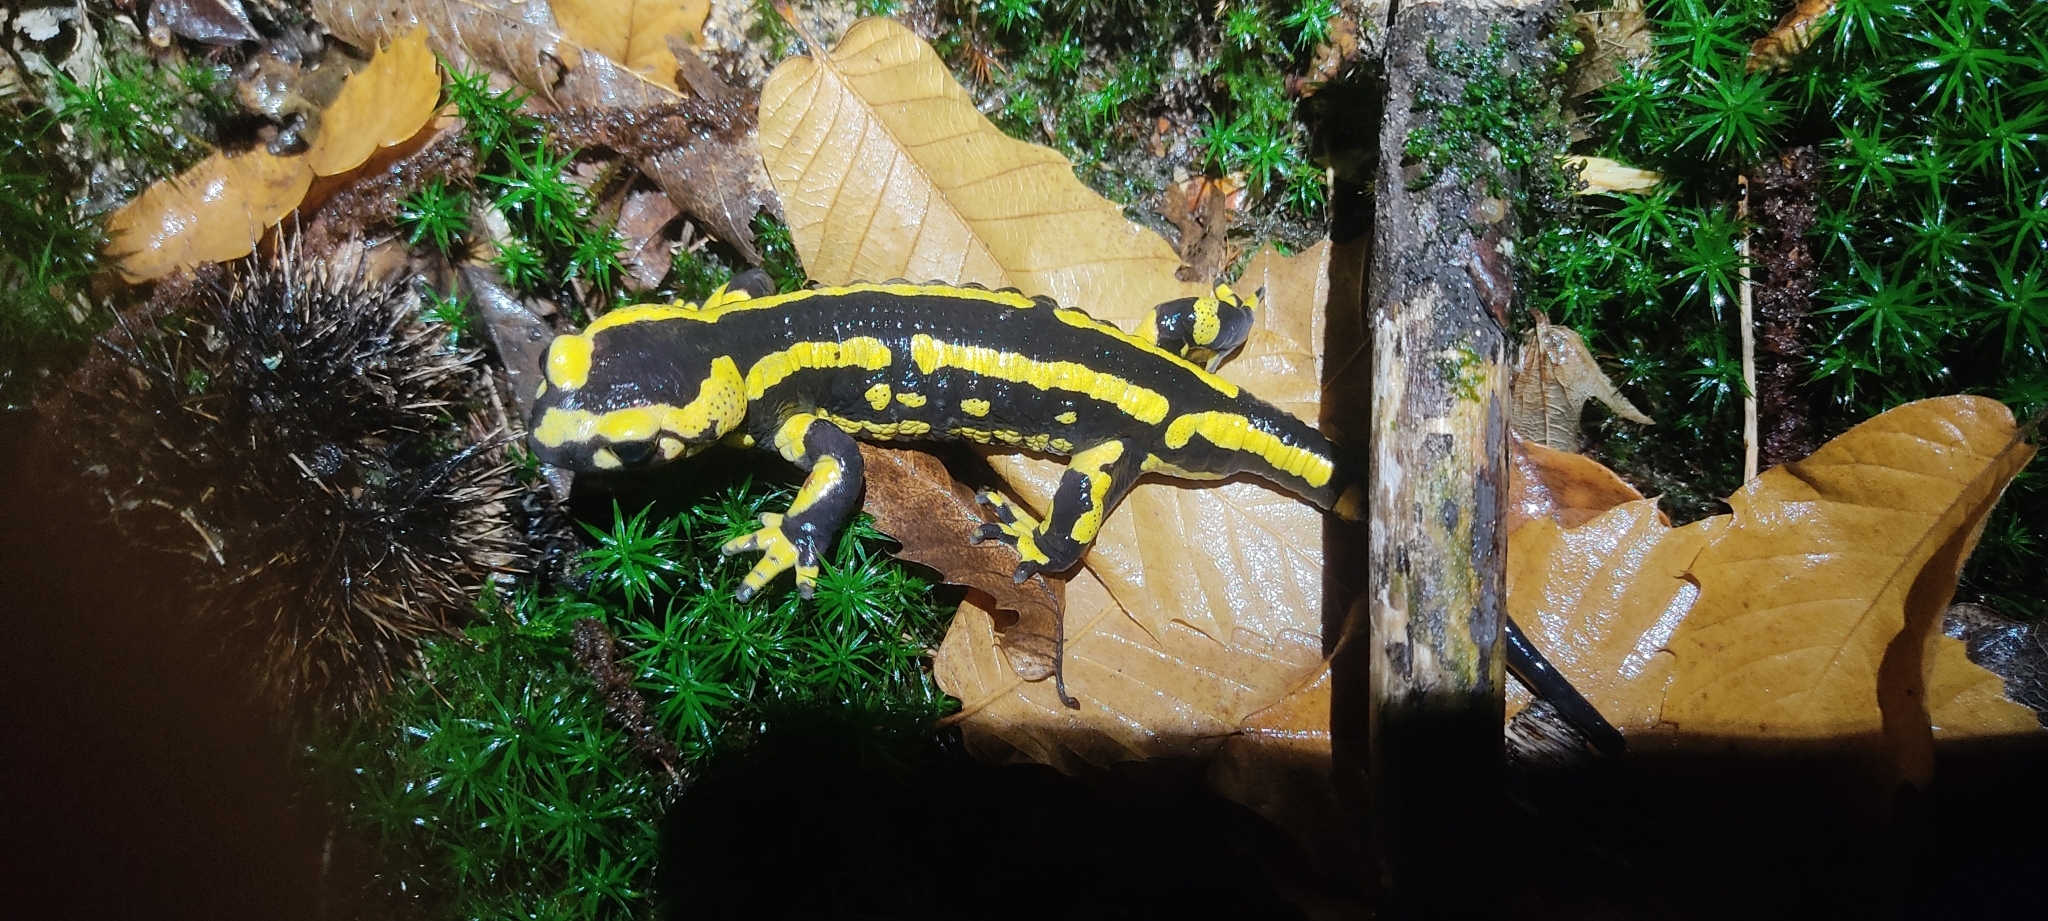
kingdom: Animalia
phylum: Chordata
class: Amphibia
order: Caudata
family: Salamandridae
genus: Salamandra
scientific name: Salamandra salamandra
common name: Fire salamander
